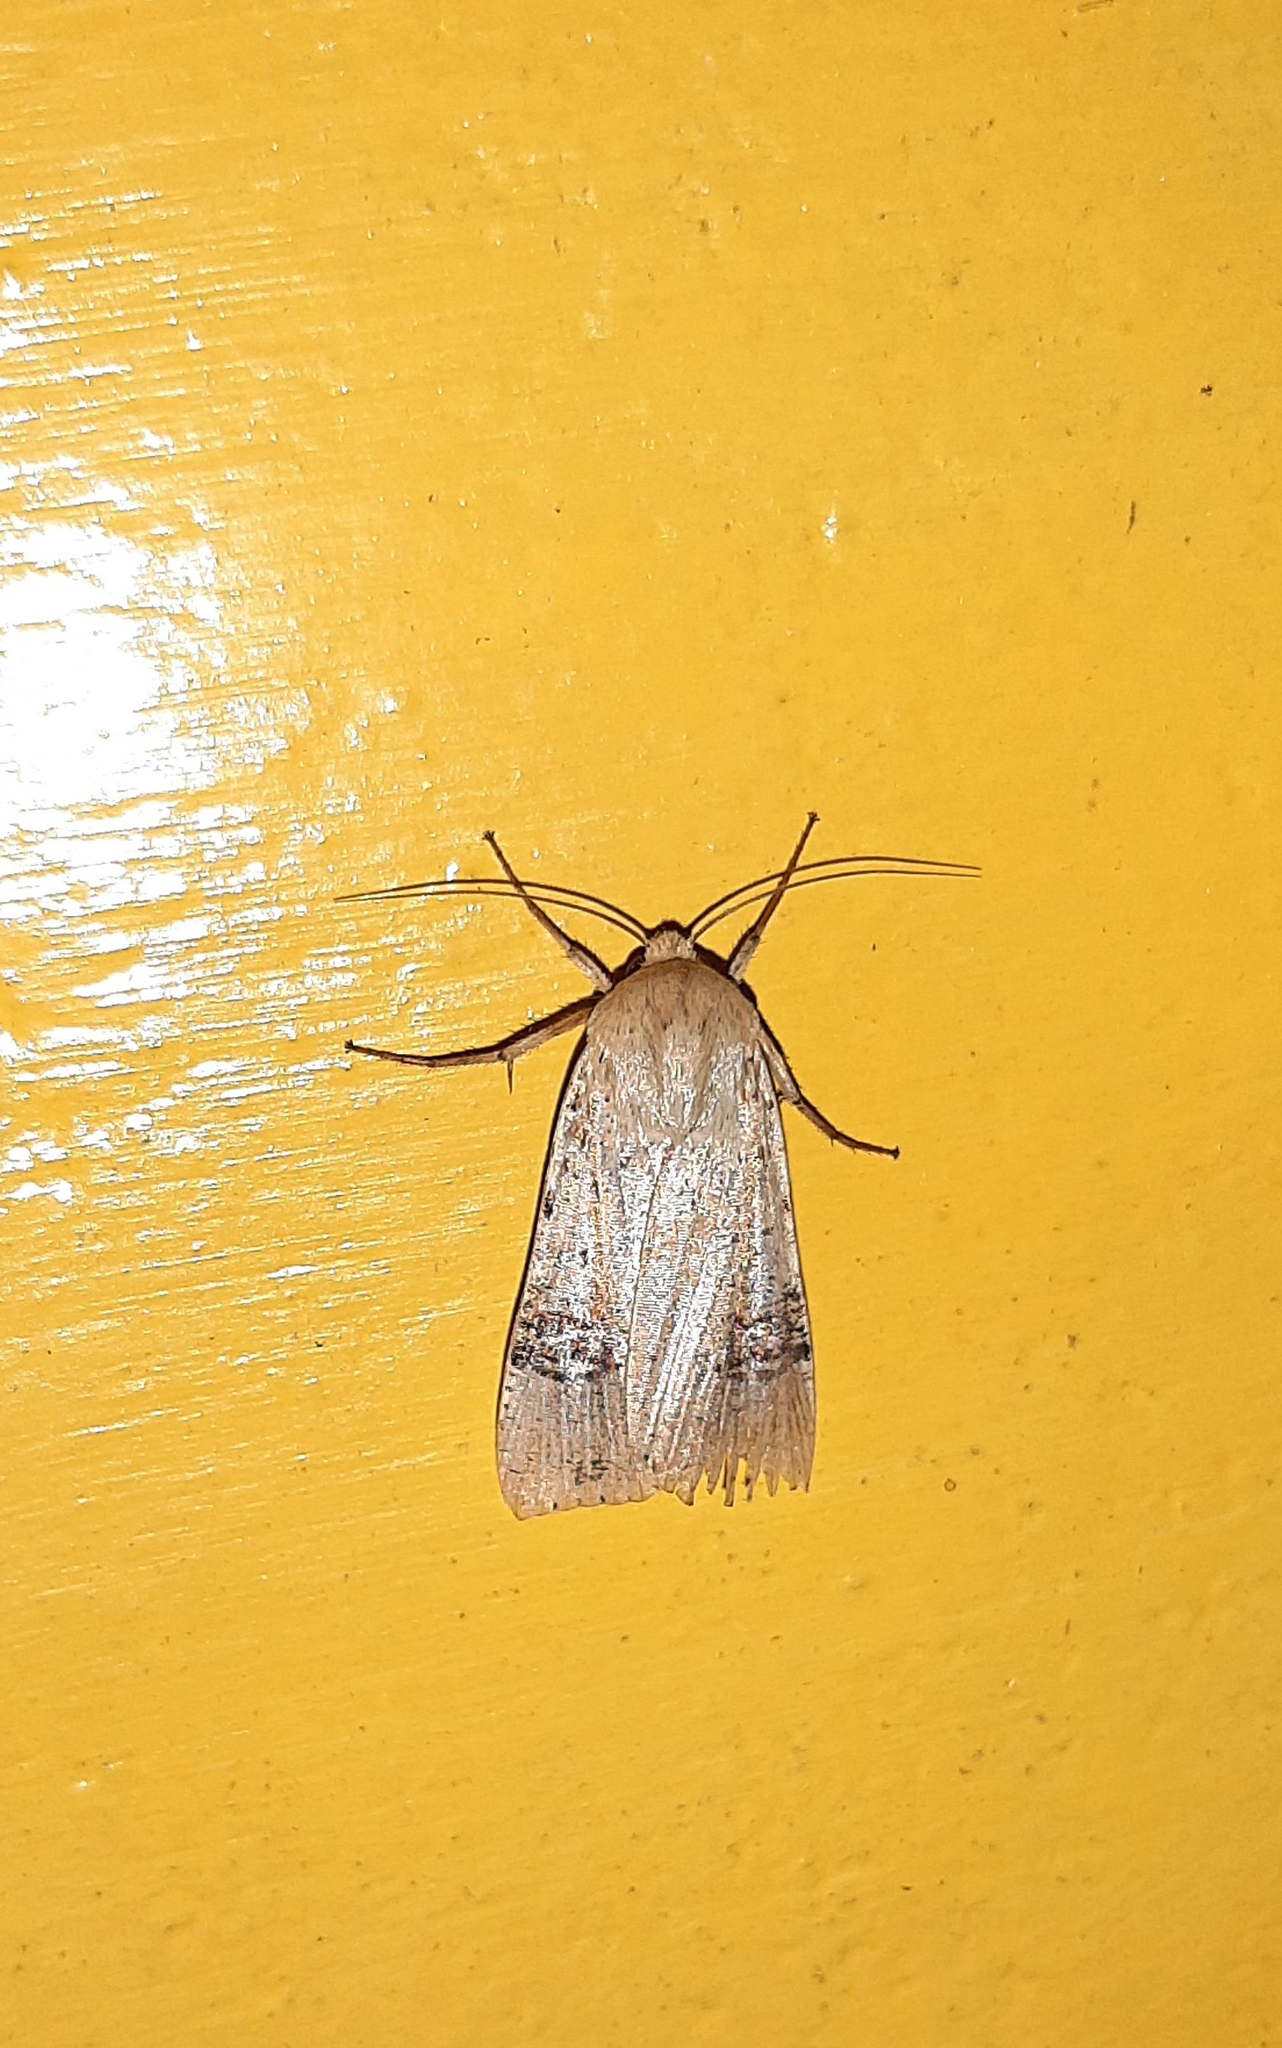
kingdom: Animalia
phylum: Arthropoda
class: Insecta
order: Lepidoptera
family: Noctuidae
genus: Praina
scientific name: Praina irazuna
